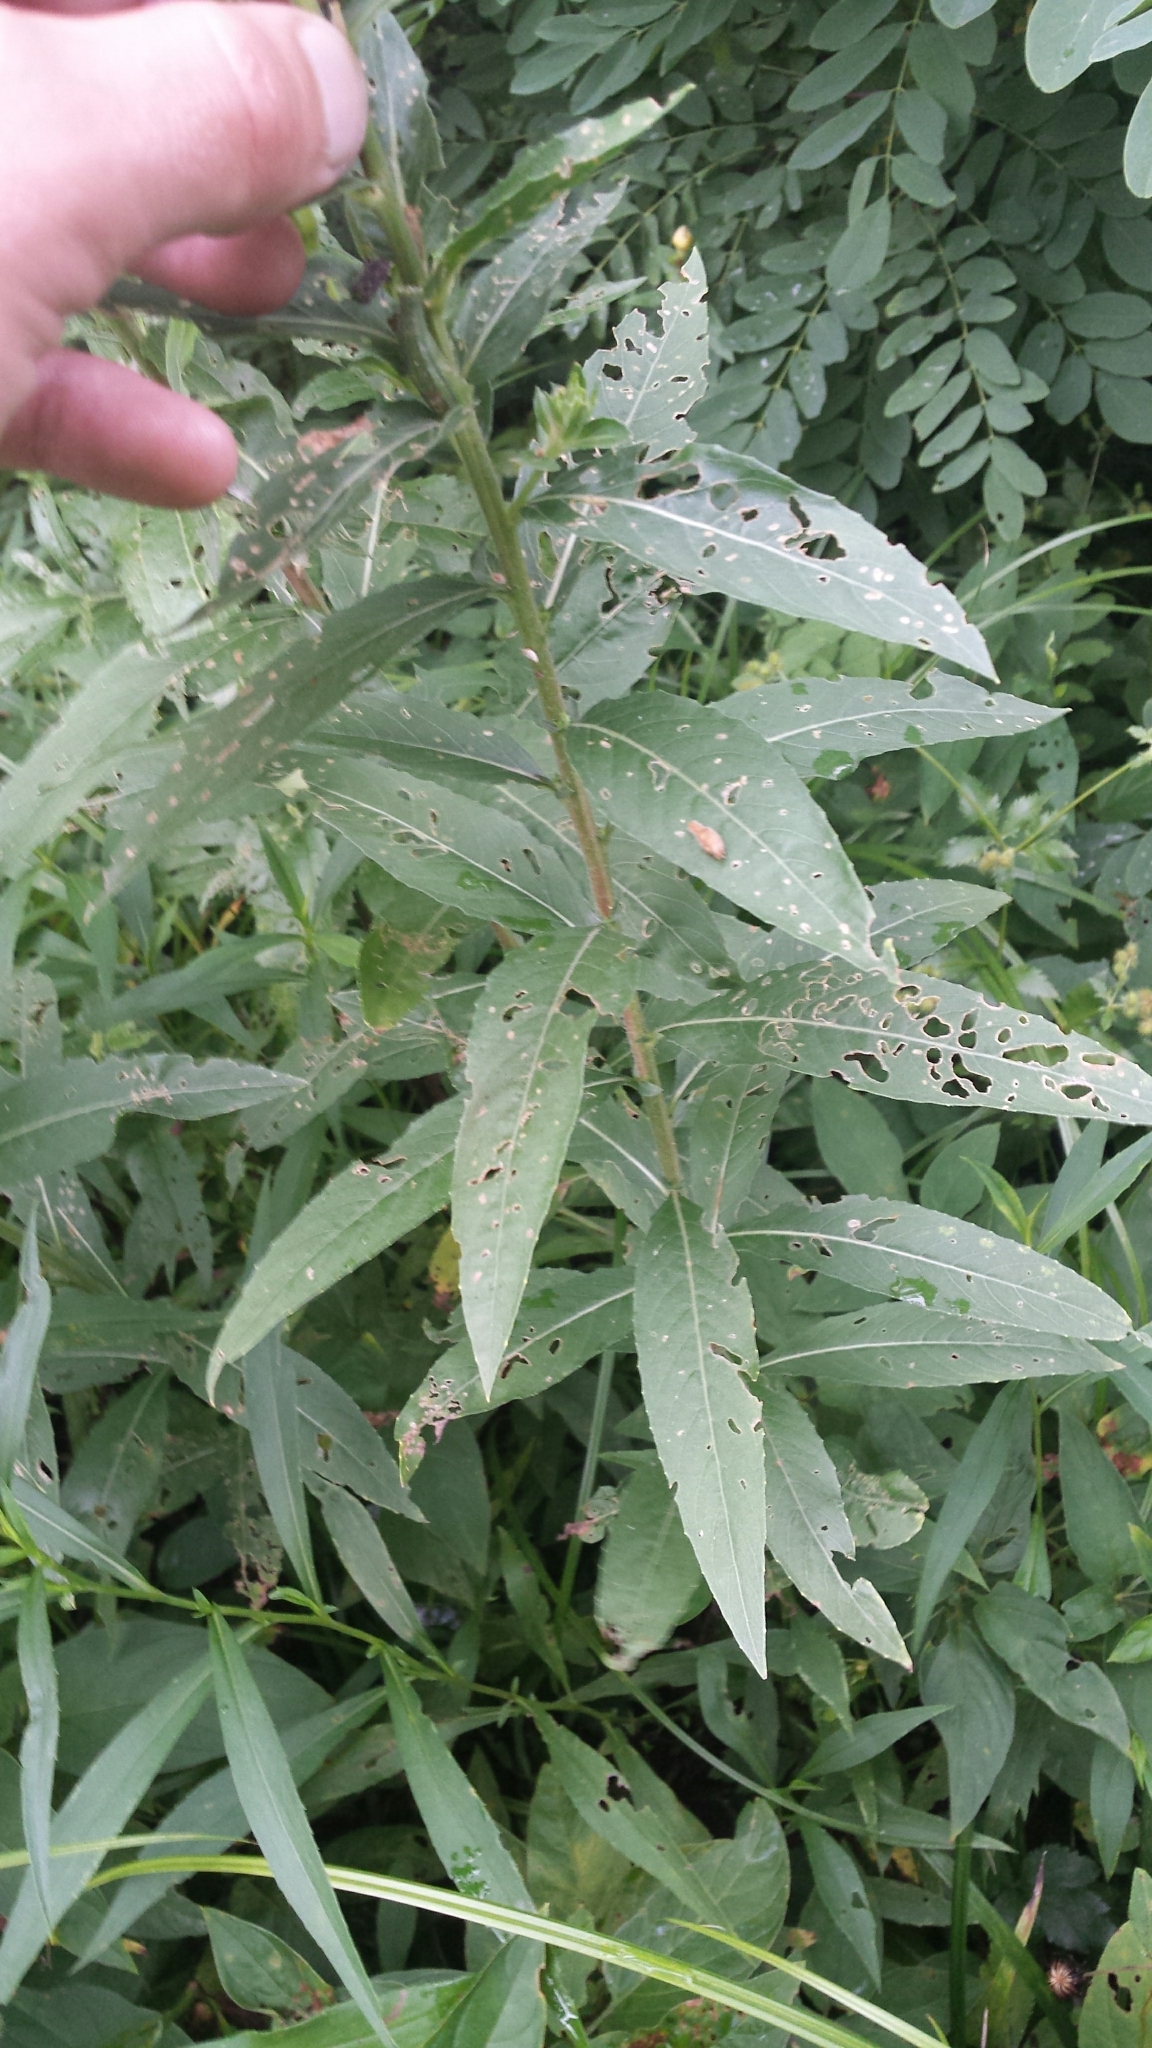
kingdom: Plantae
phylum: Tracheophyta
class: Magnoliopsida
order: Myrtales
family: Onagraceae
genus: Oenothera
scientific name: Oenothera biennis
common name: Common evening-primrose
